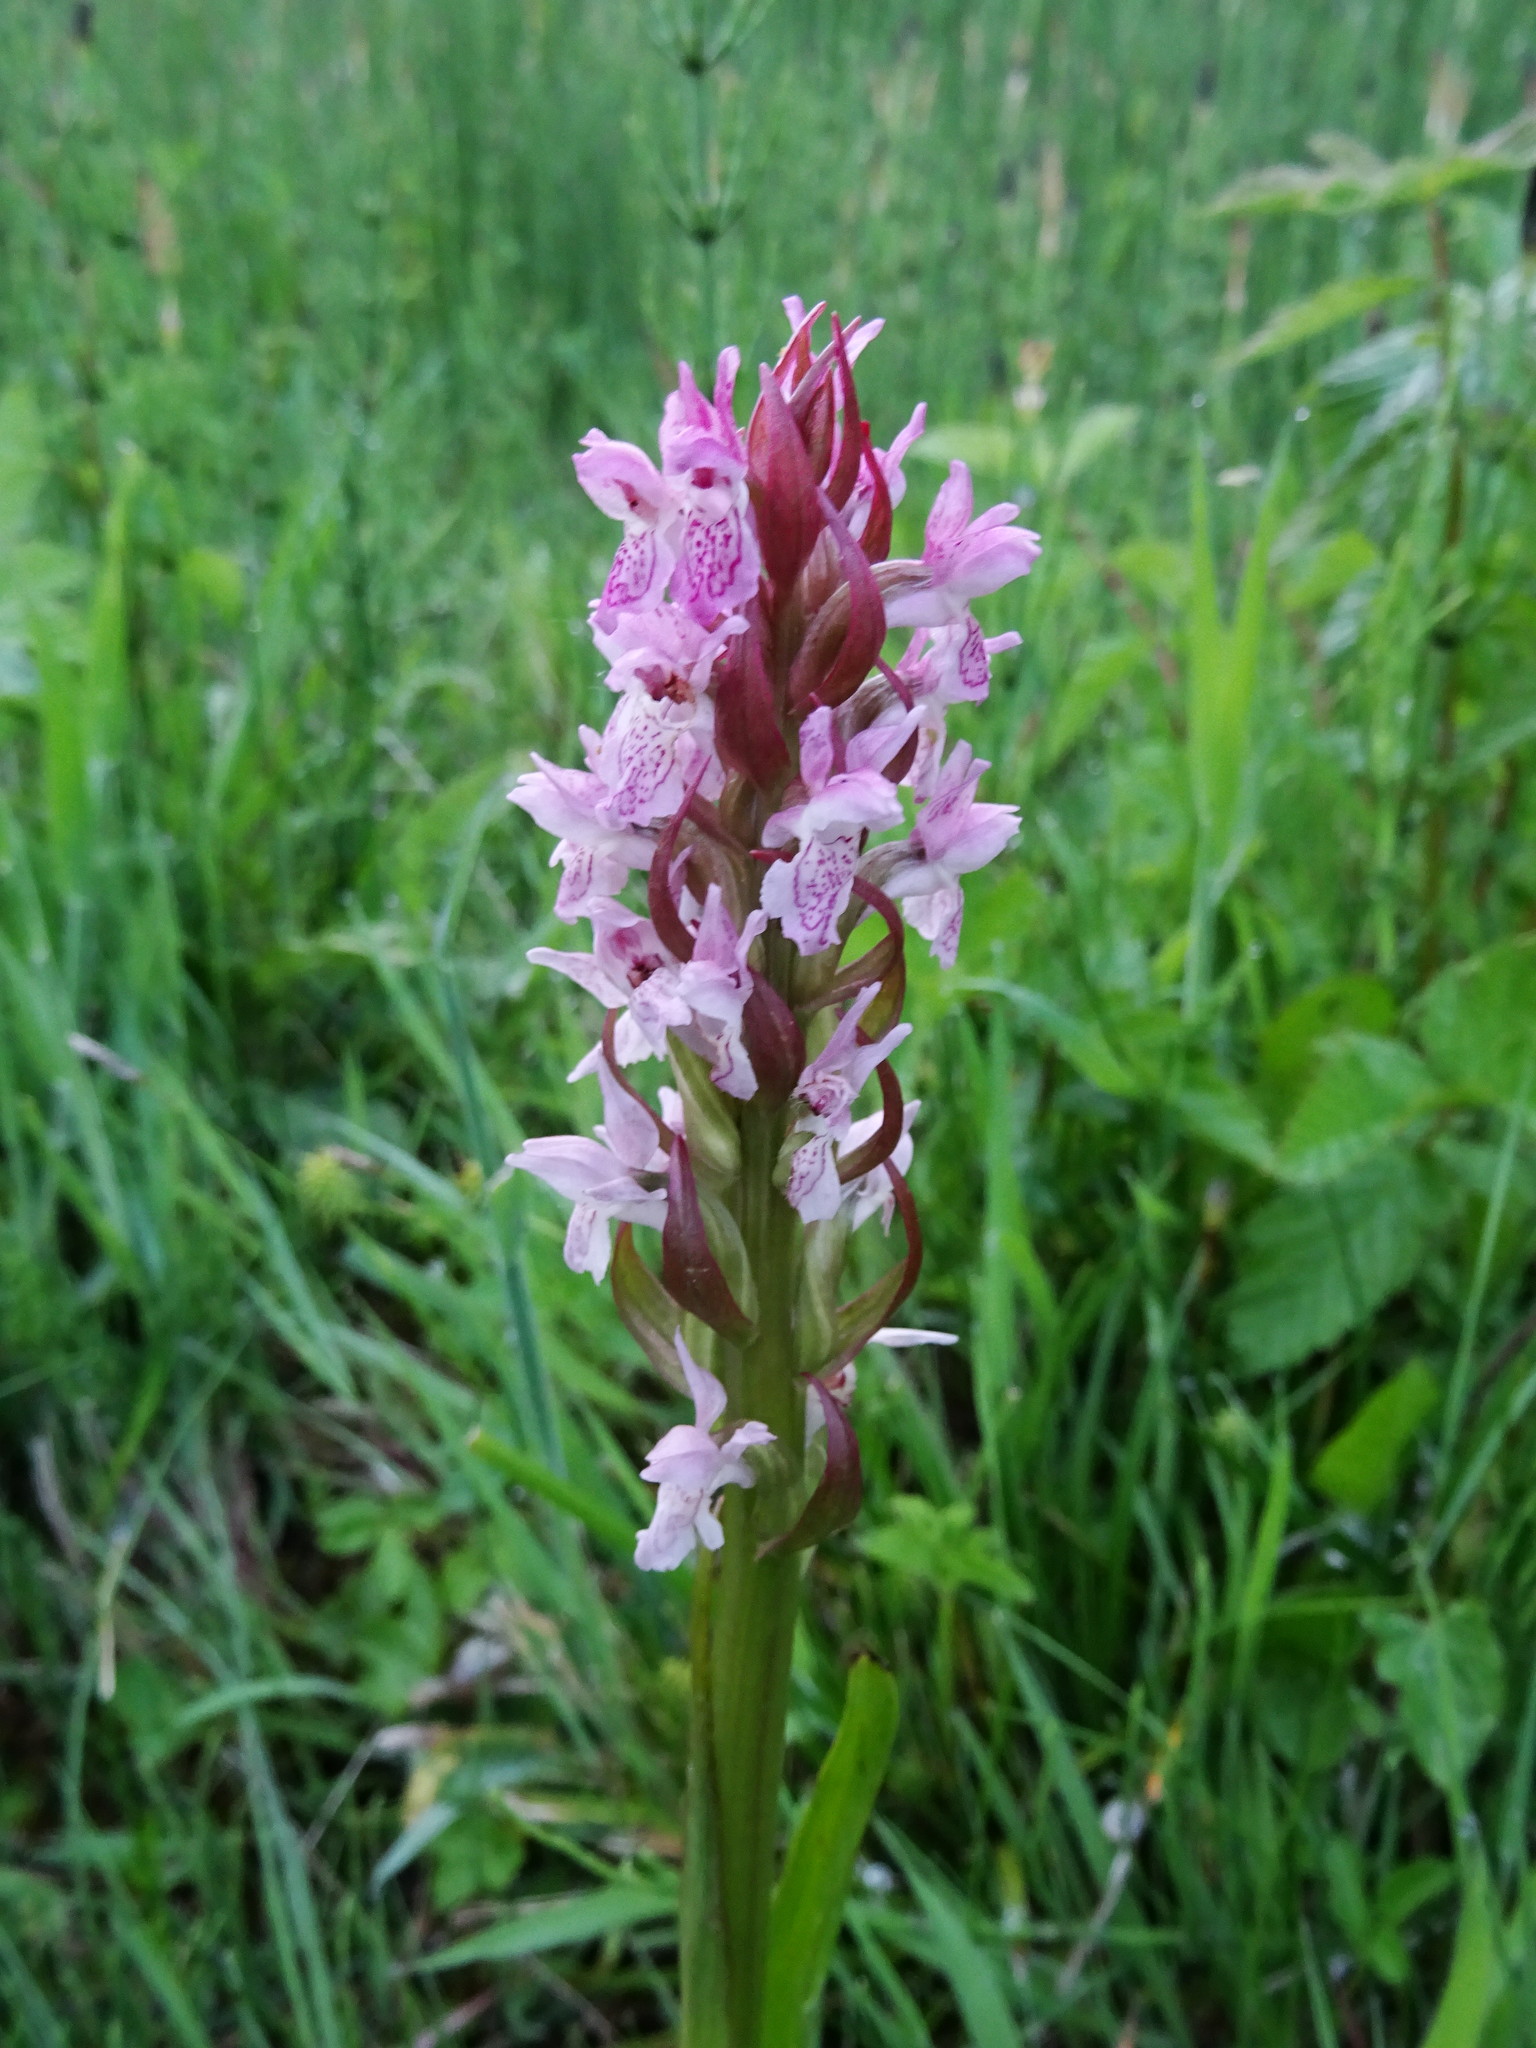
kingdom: Plantae
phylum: Tracheophyta
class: Liliopsida
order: Asparagales
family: Orchidaceae
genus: Dactylorhiza
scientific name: Dactylorhiza incarnata
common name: Early marsh-orchid
